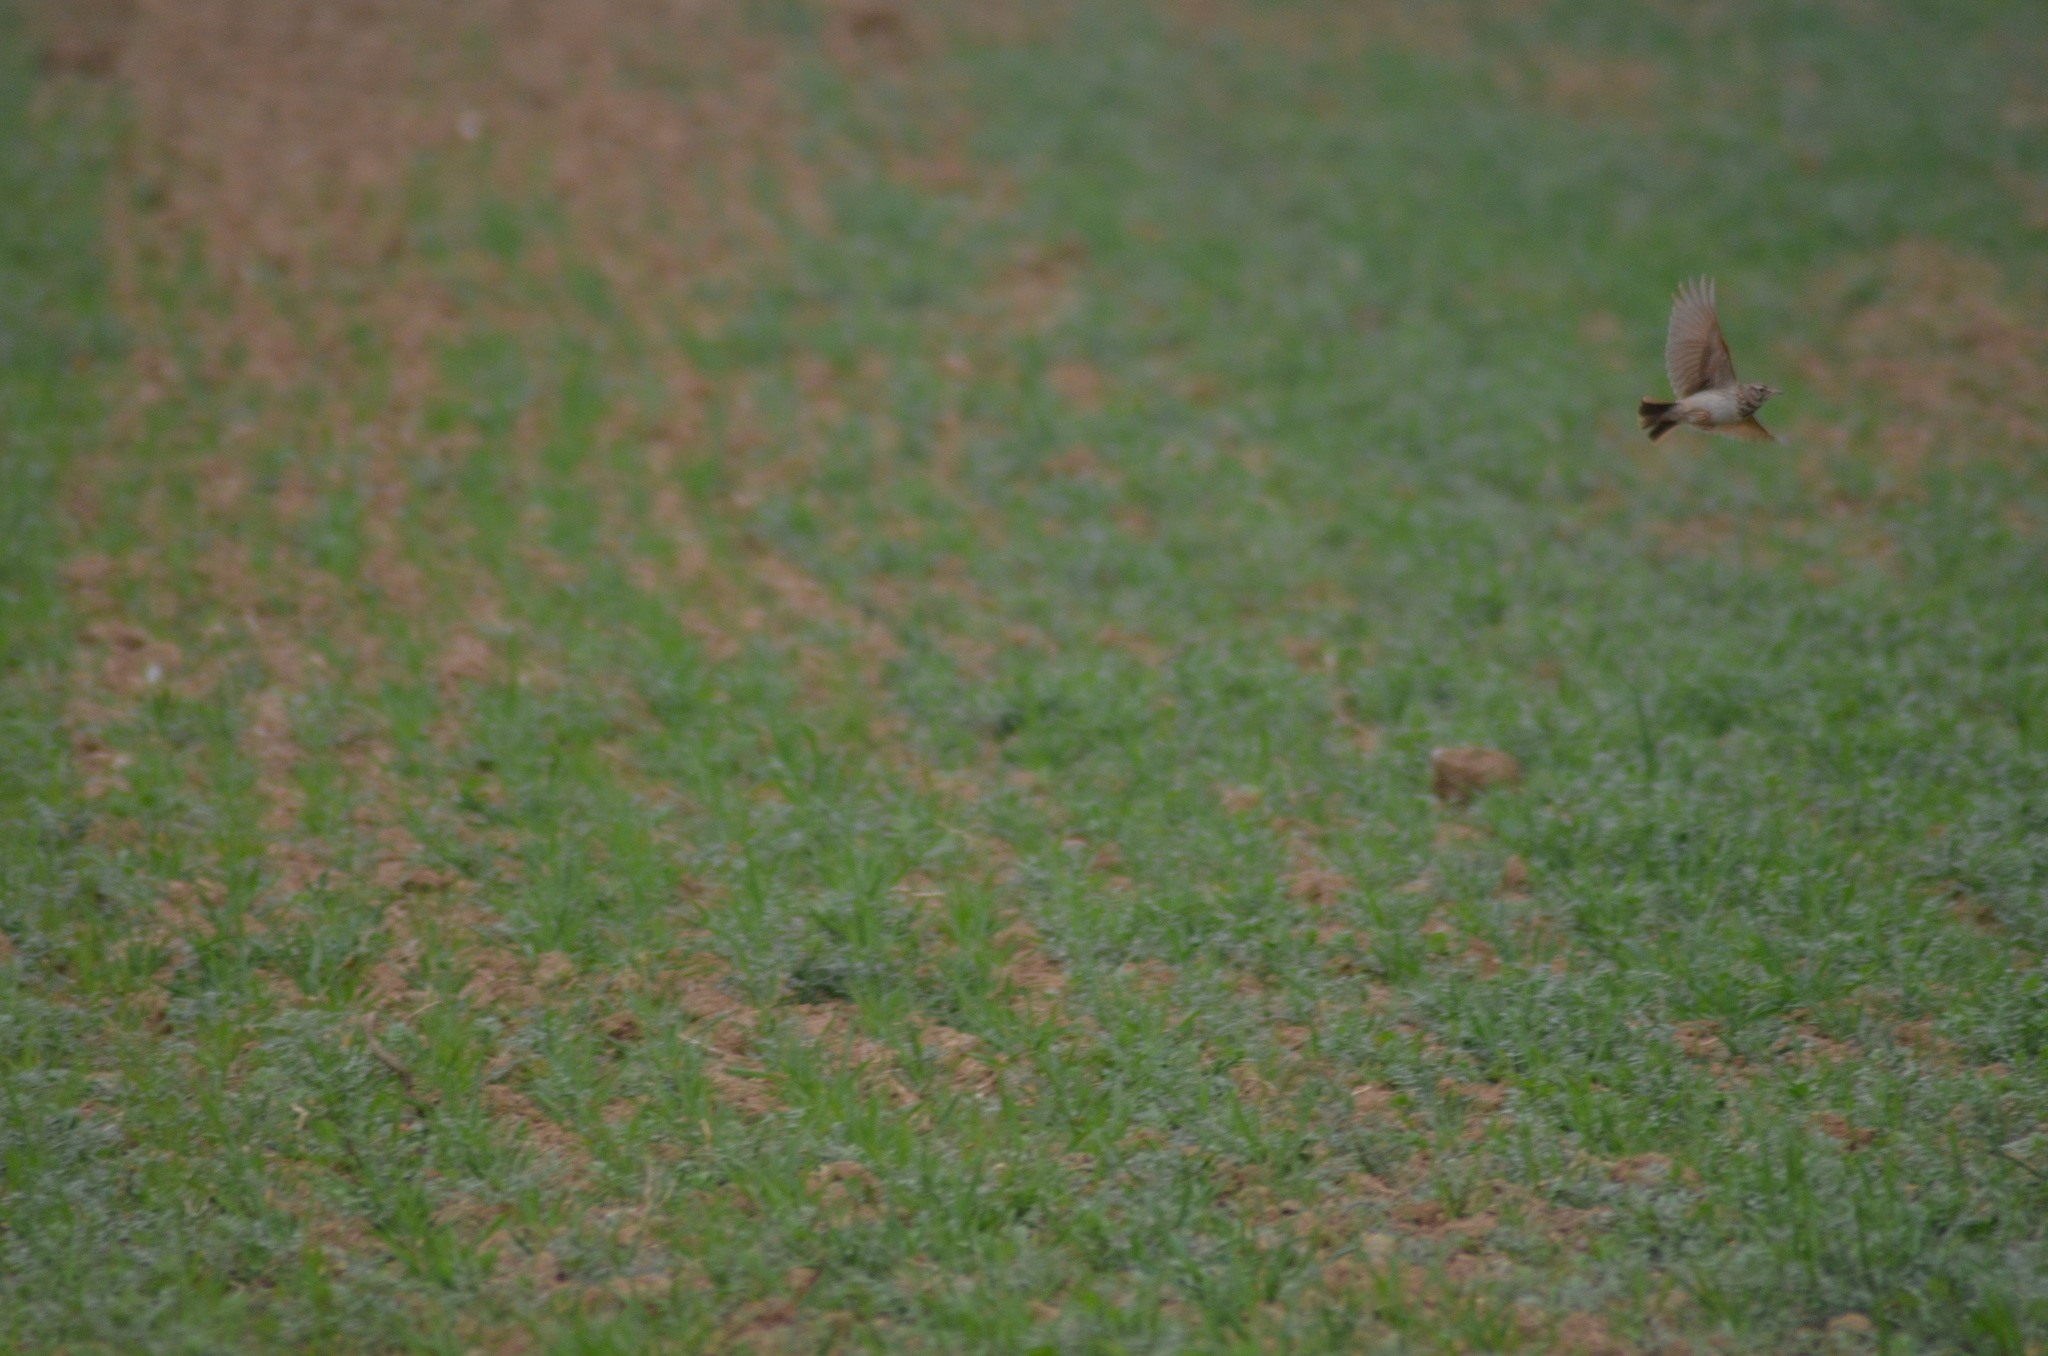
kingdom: Animalia
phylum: Chordata
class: Aves
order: Passeriformes
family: Alaudidae
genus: Galerida
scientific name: Galerida cristata
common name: Crested lark
